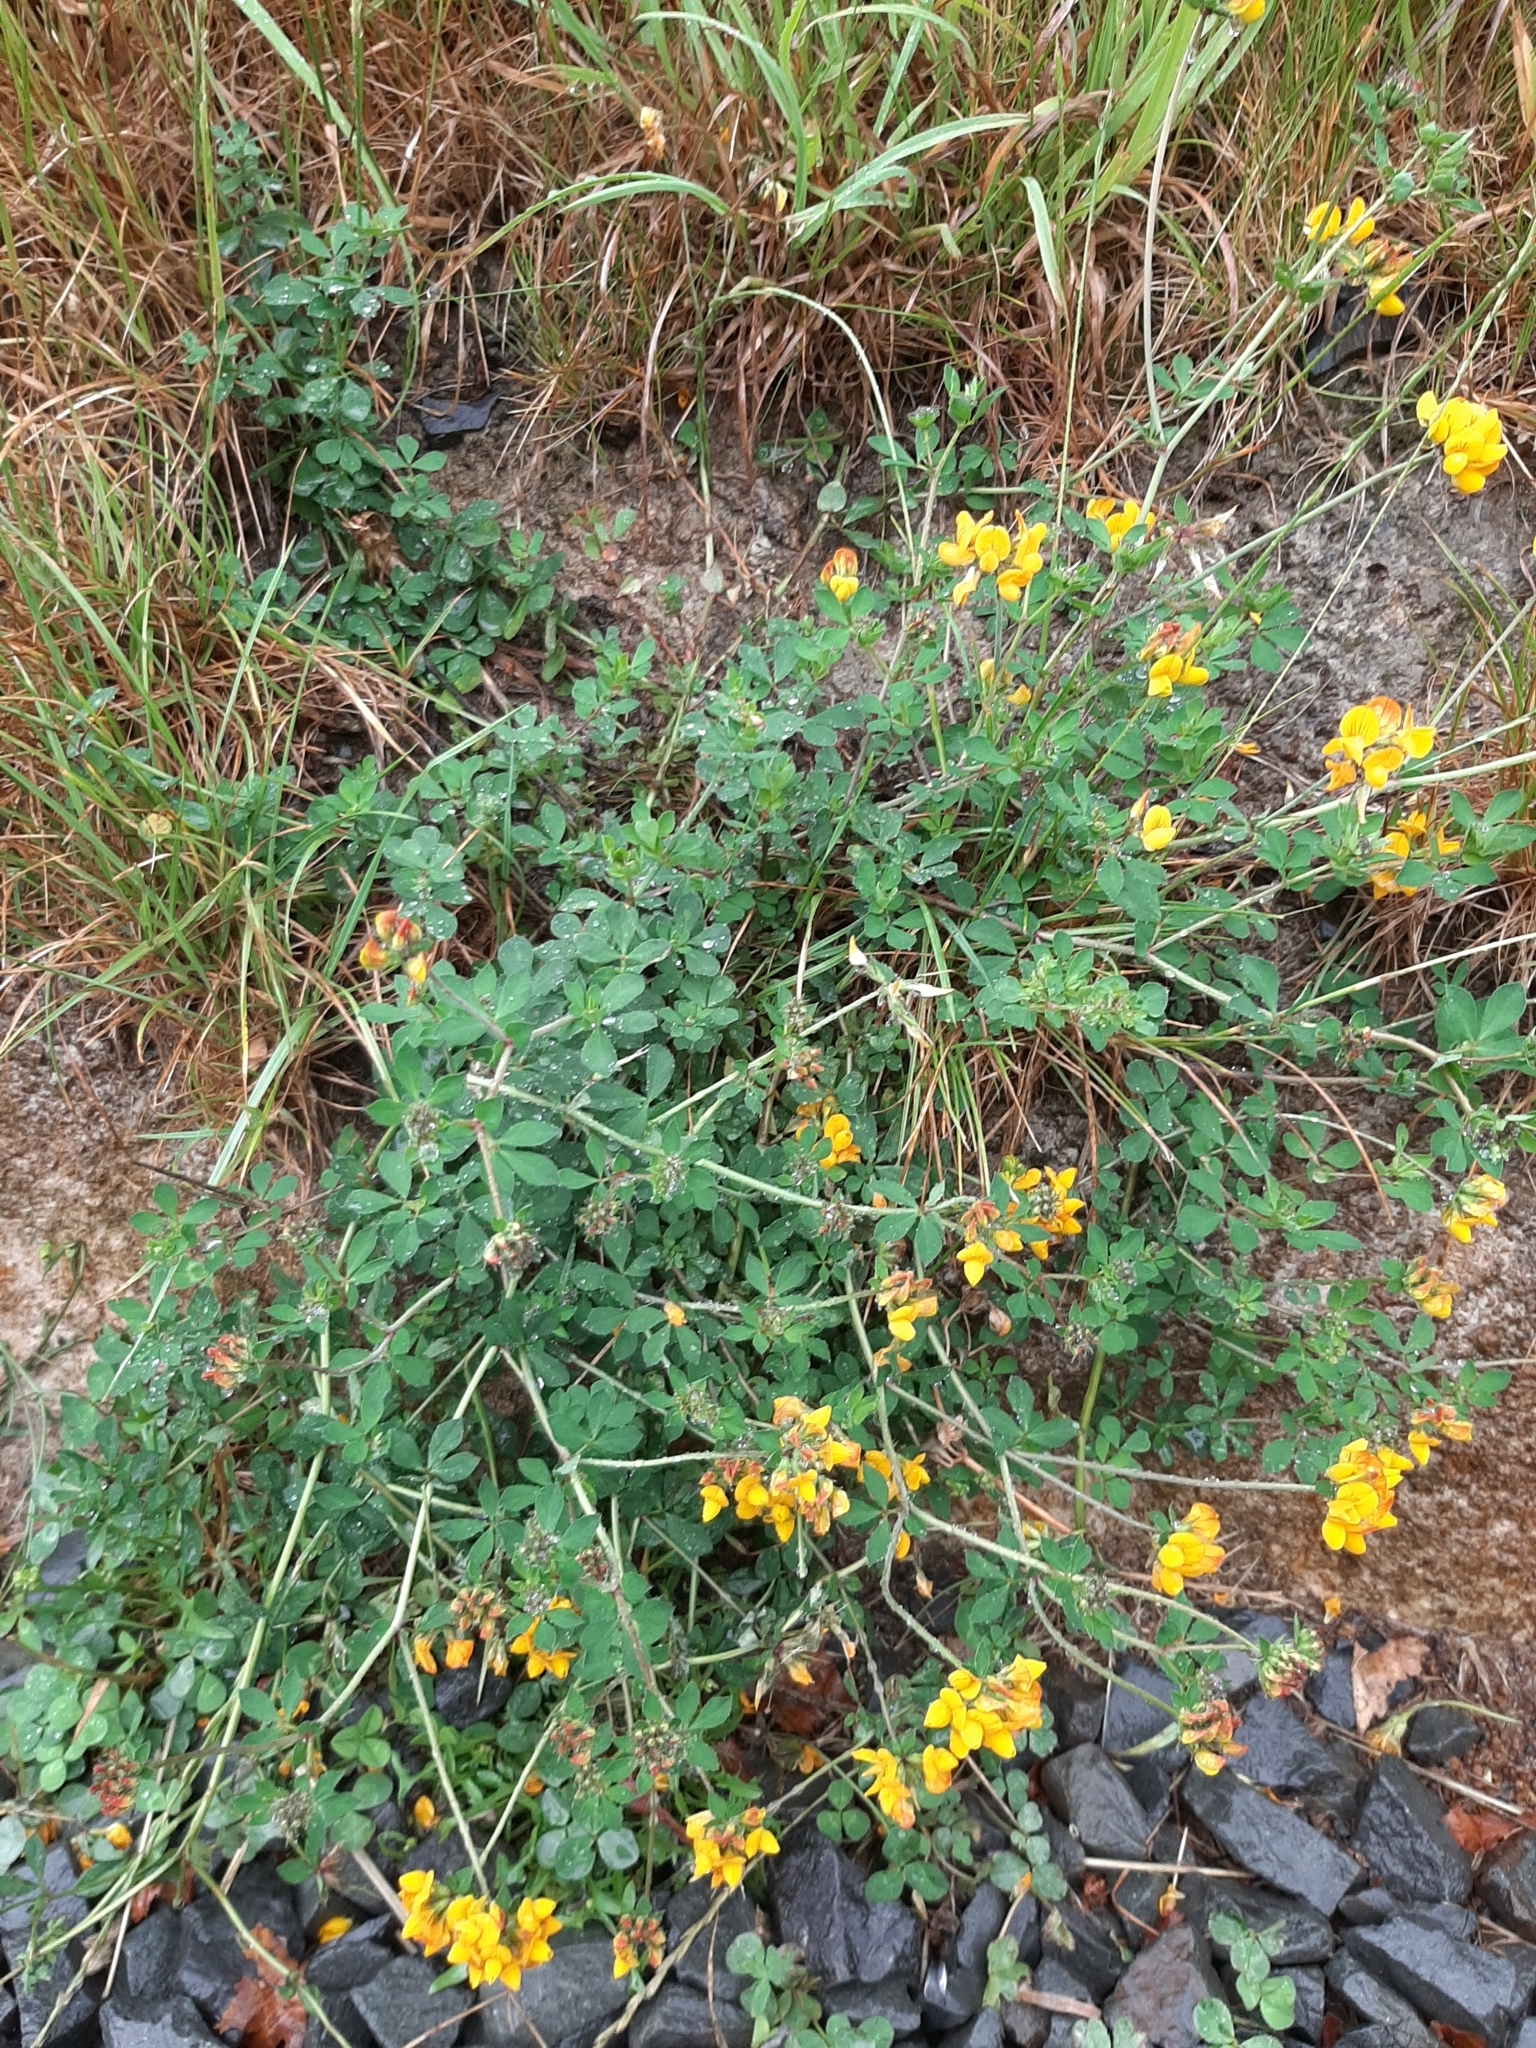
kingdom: Plantae
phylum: Tracheophyta
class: Magnoliopsida
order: Fabales
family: Fabaceae
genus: Lotus
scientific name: Lotus pedunculatus
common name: Greater birdsfoot-trefoil
